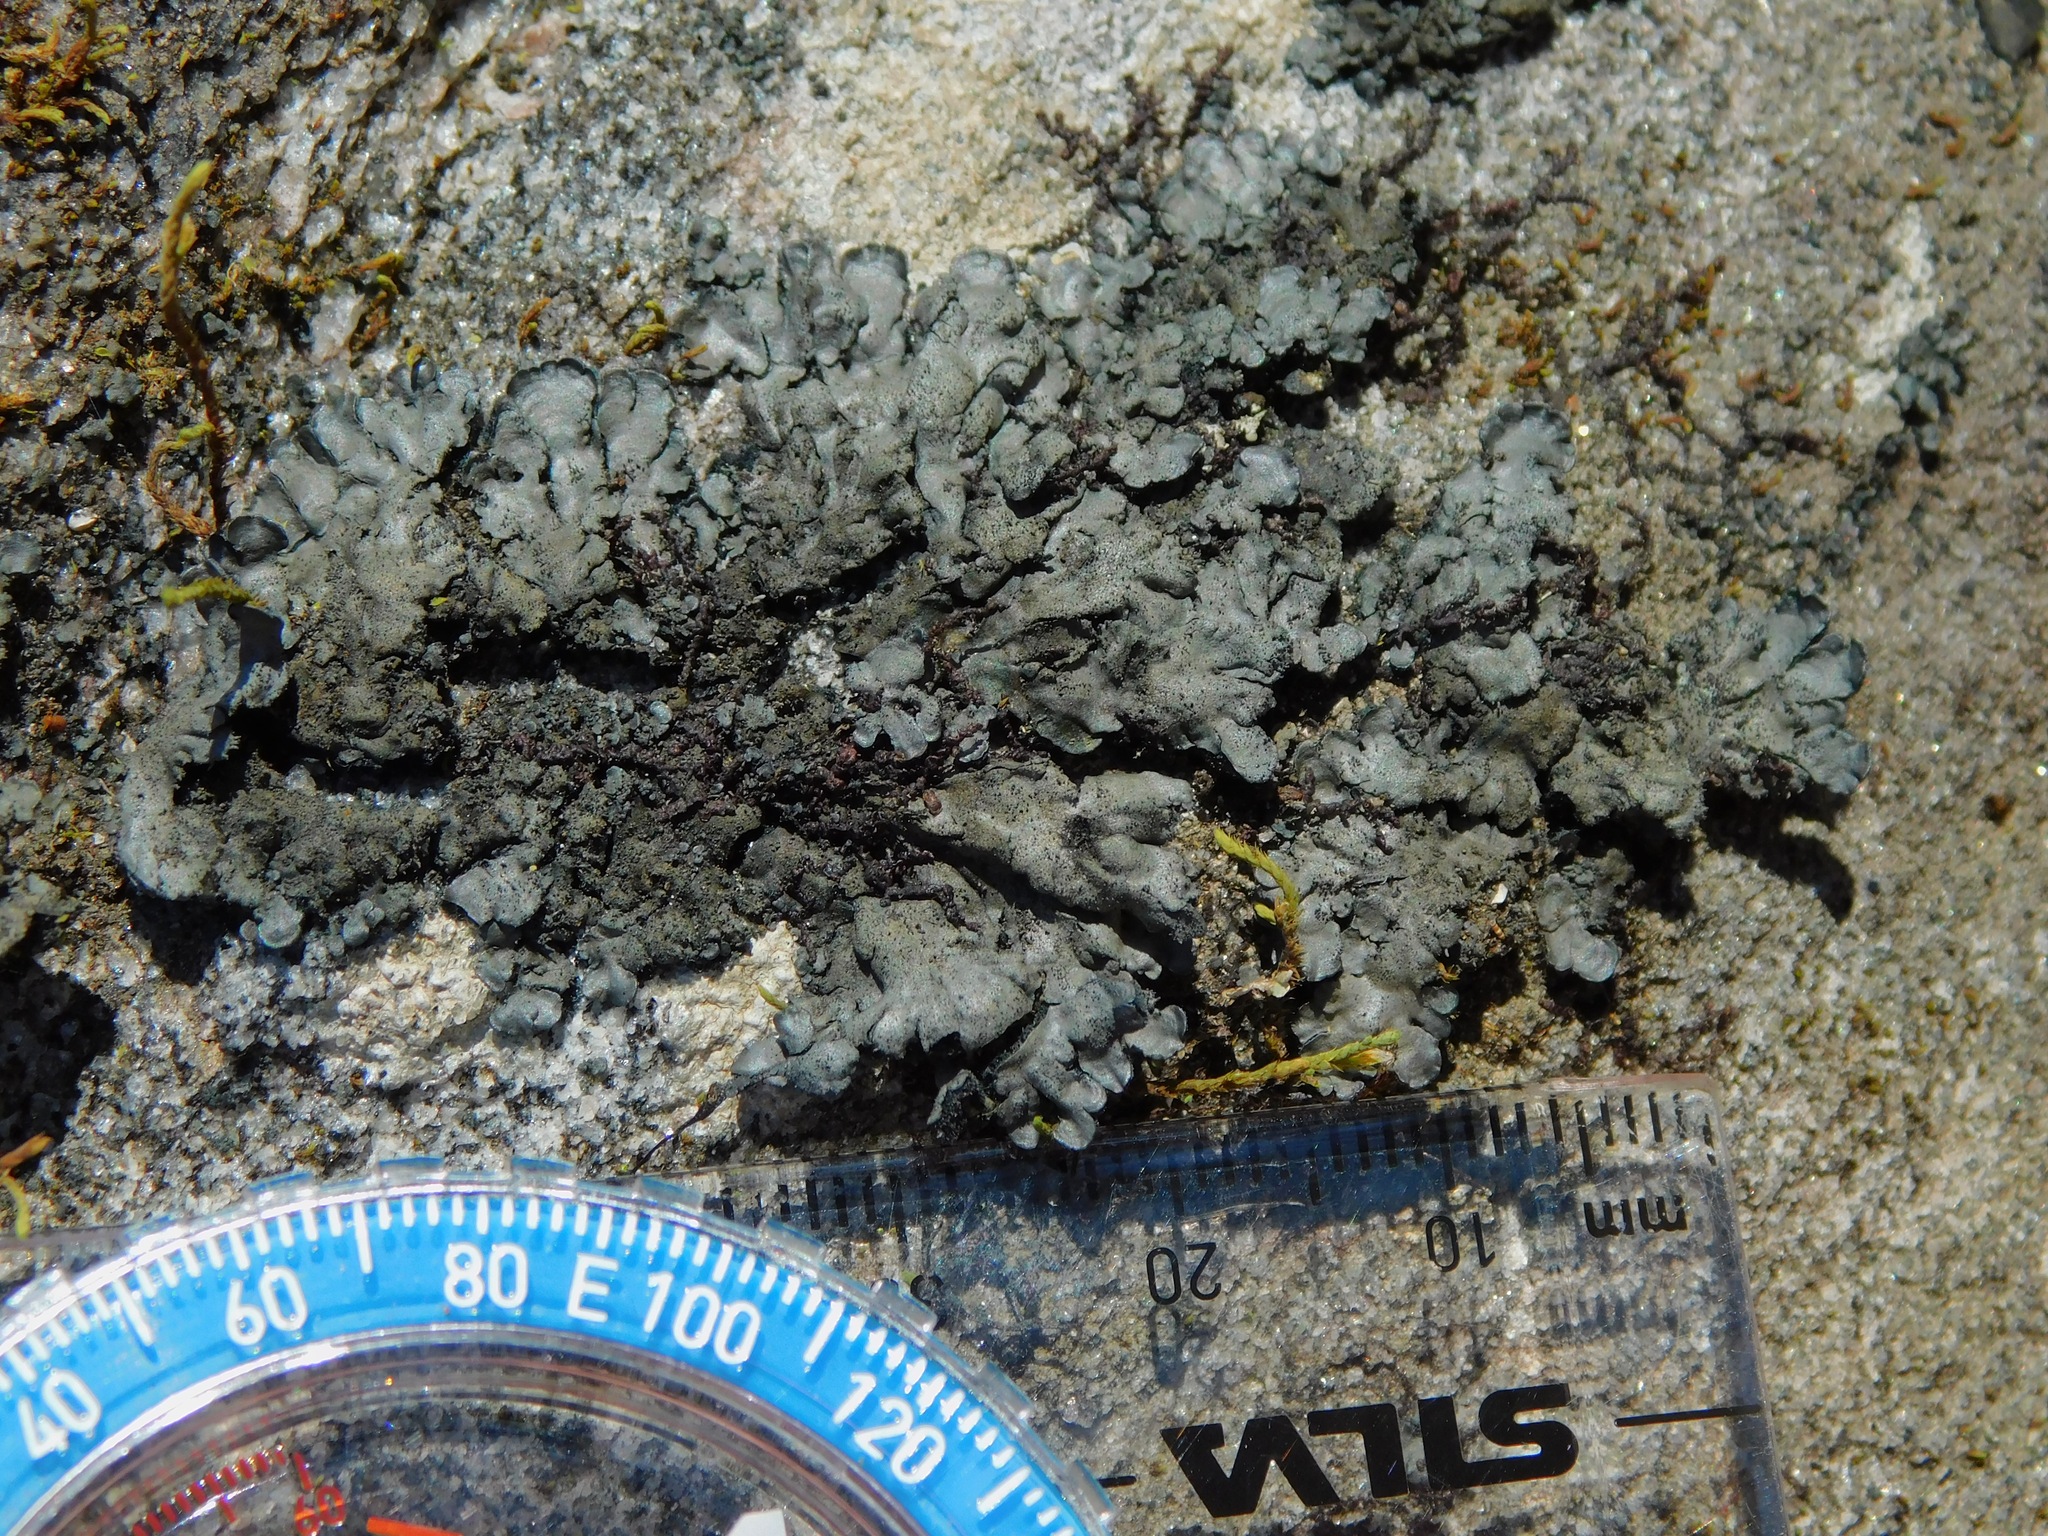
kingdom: Fungi
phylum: Ascomycota
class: Lecanoromycetes
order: Peltigerales
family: Coccocarpiaceae
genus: Coccocarpia
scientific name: Coccocarpia palmicola
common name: Salted shell lichen
